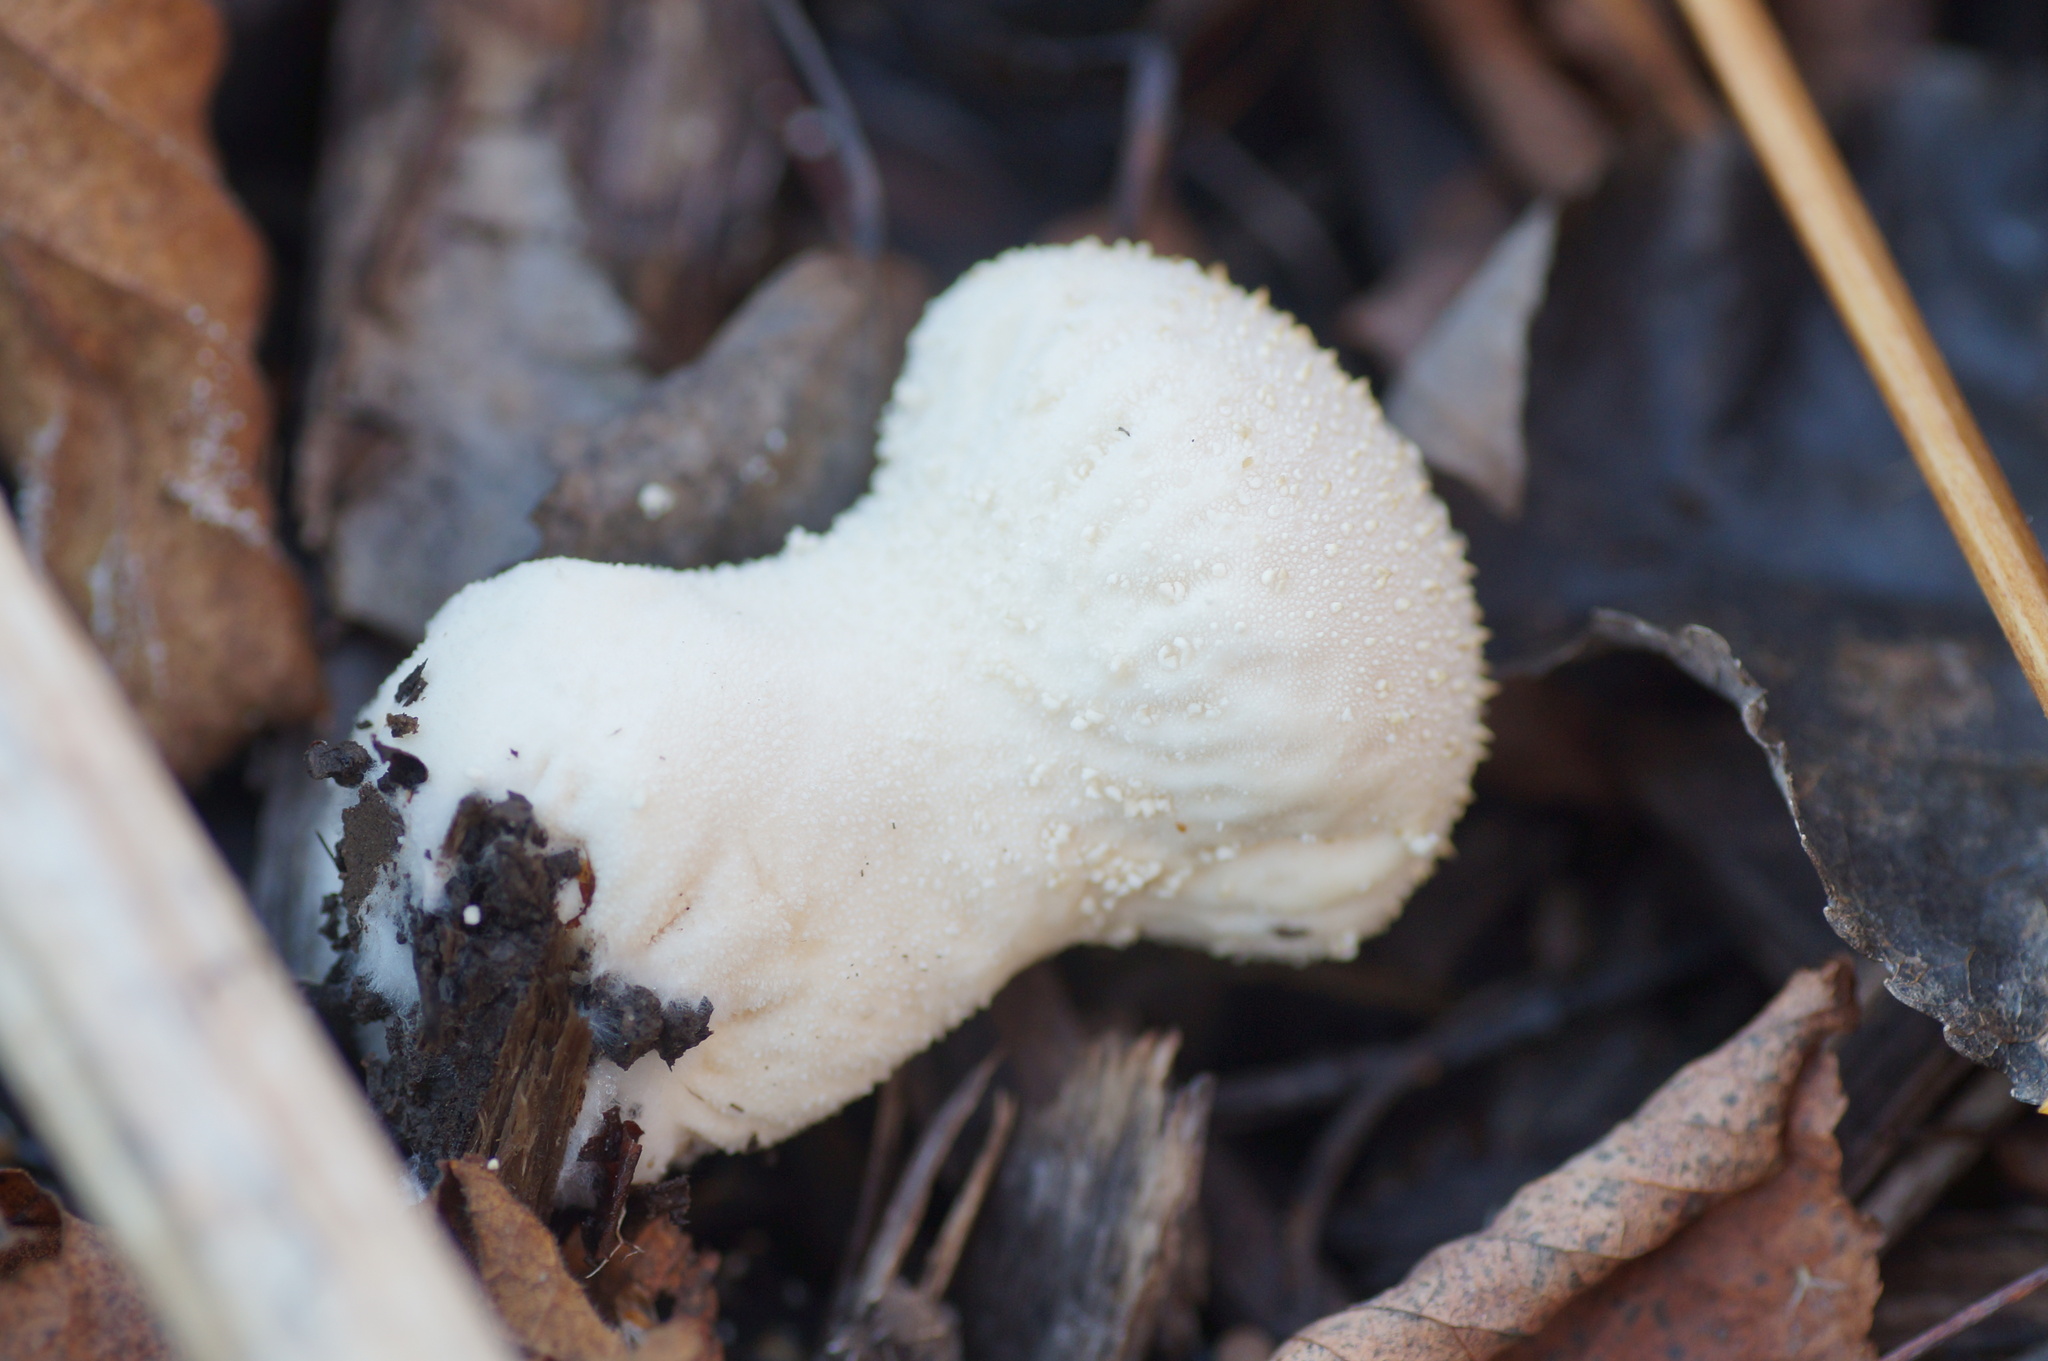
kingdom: Fungi
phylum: Basidiomycota
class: Agaricomycetes
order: Agaricales
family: Lycoperdaceae
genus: Lycoperdon
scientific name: Lycoperdon perlatum
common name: Common puffball
